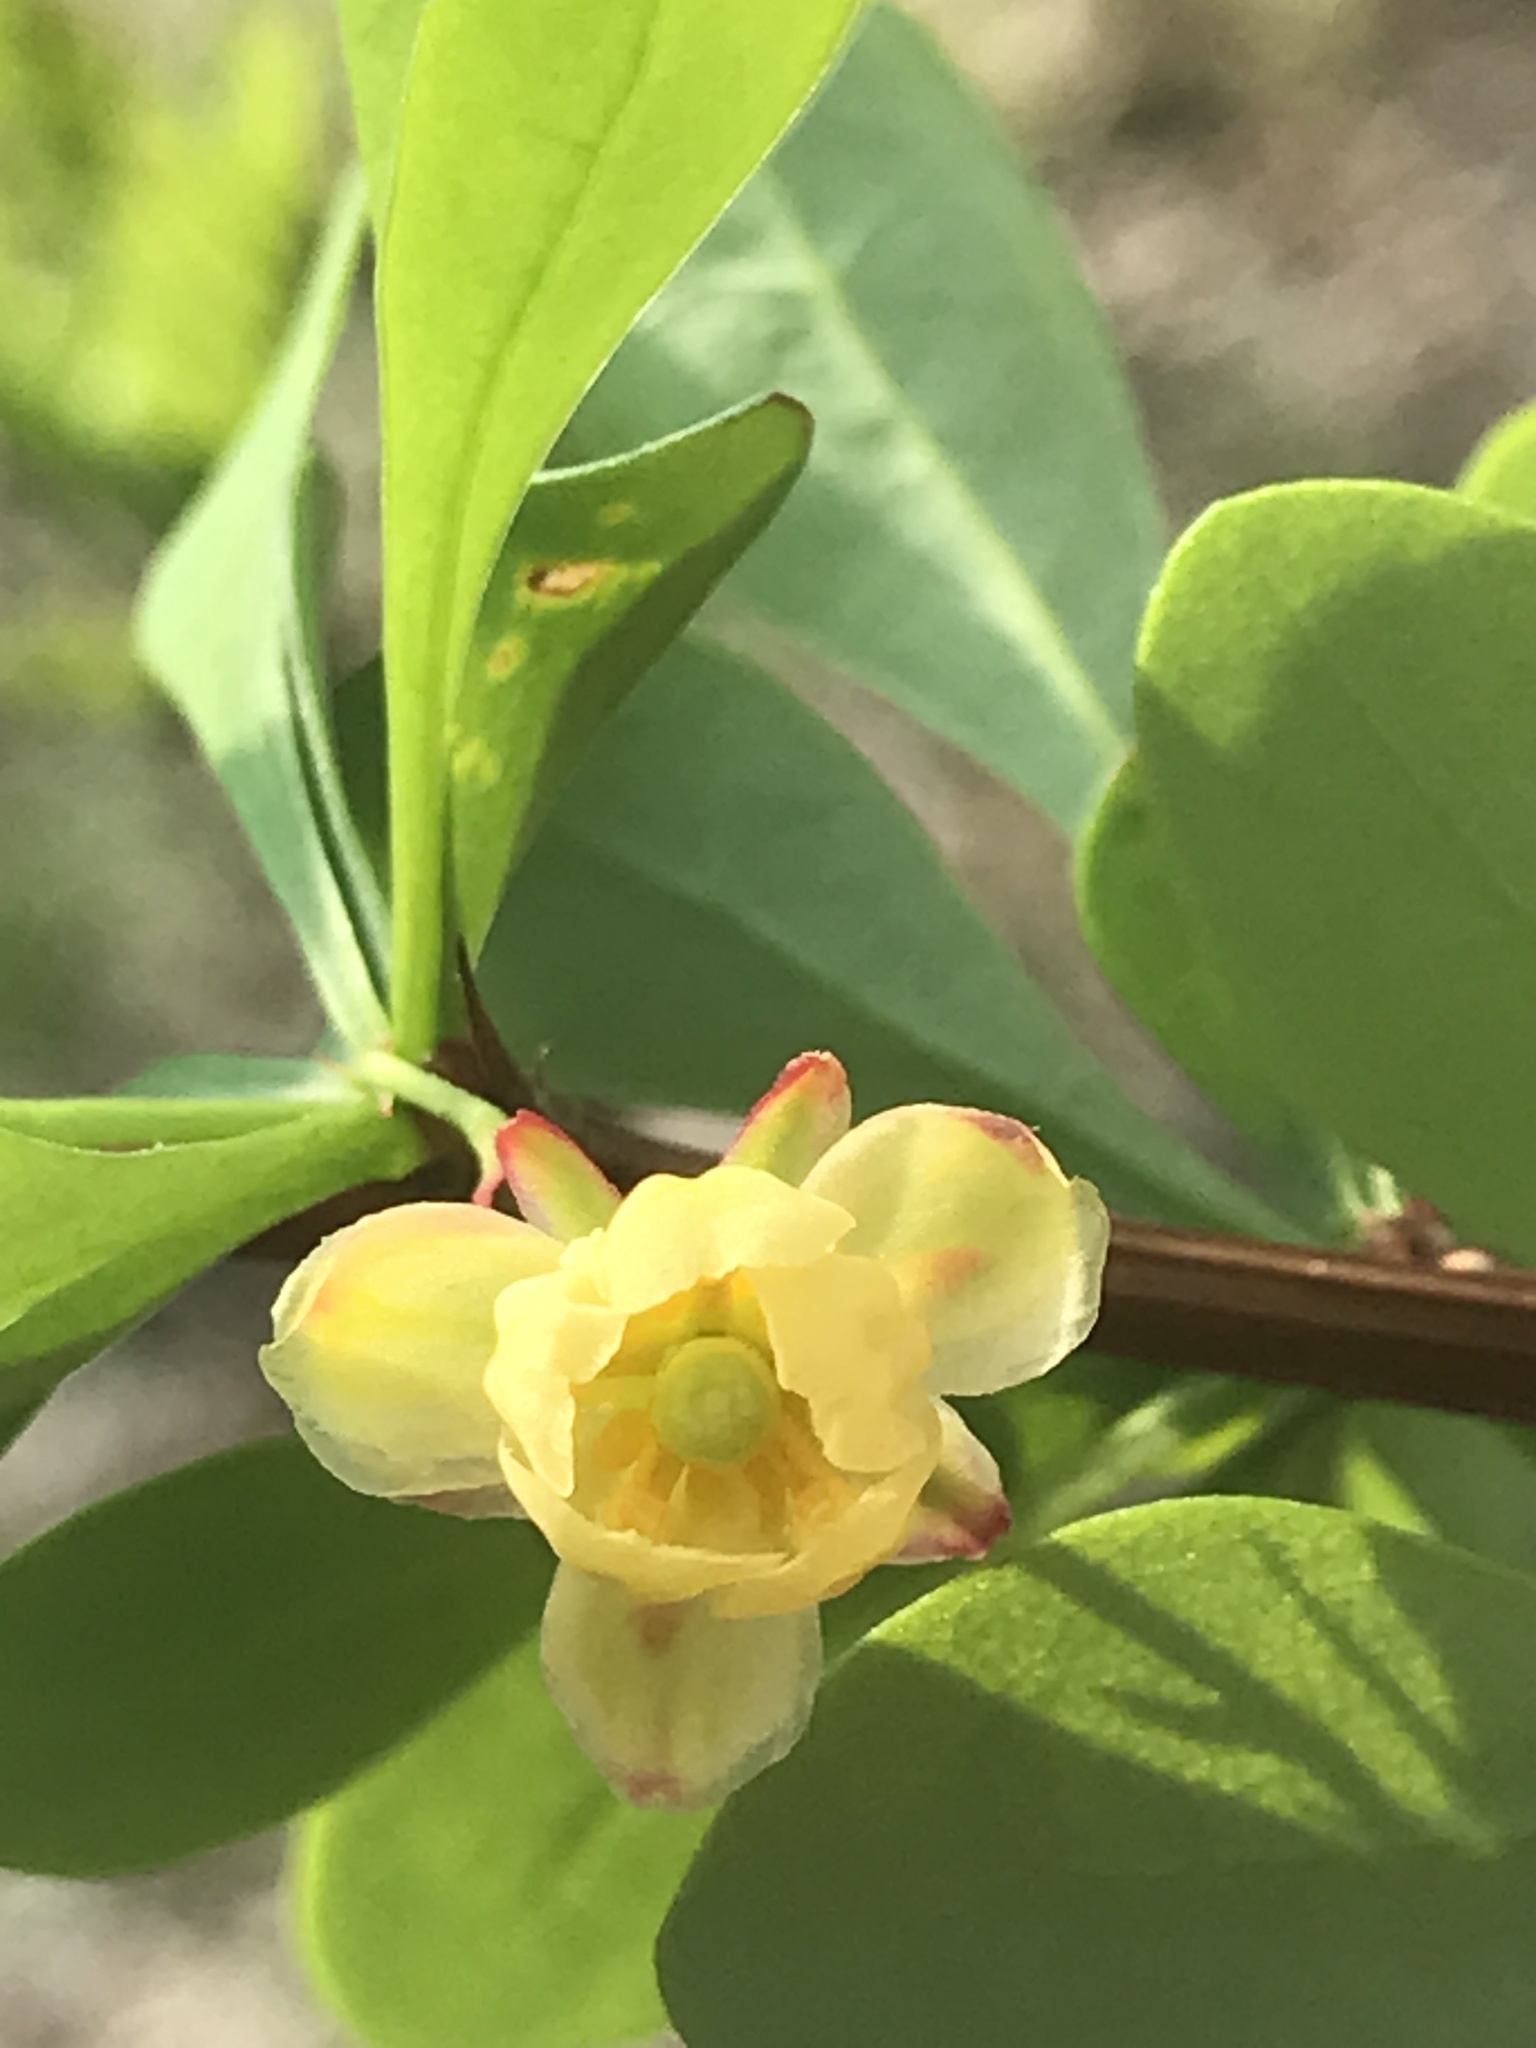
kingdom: Plantae
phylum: Tracheophyta
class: Magnoliopsida
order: Ranunculales
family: Berberidaceae
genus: Berberis
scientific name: Berberis thunbergii
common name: Japanese barberry
